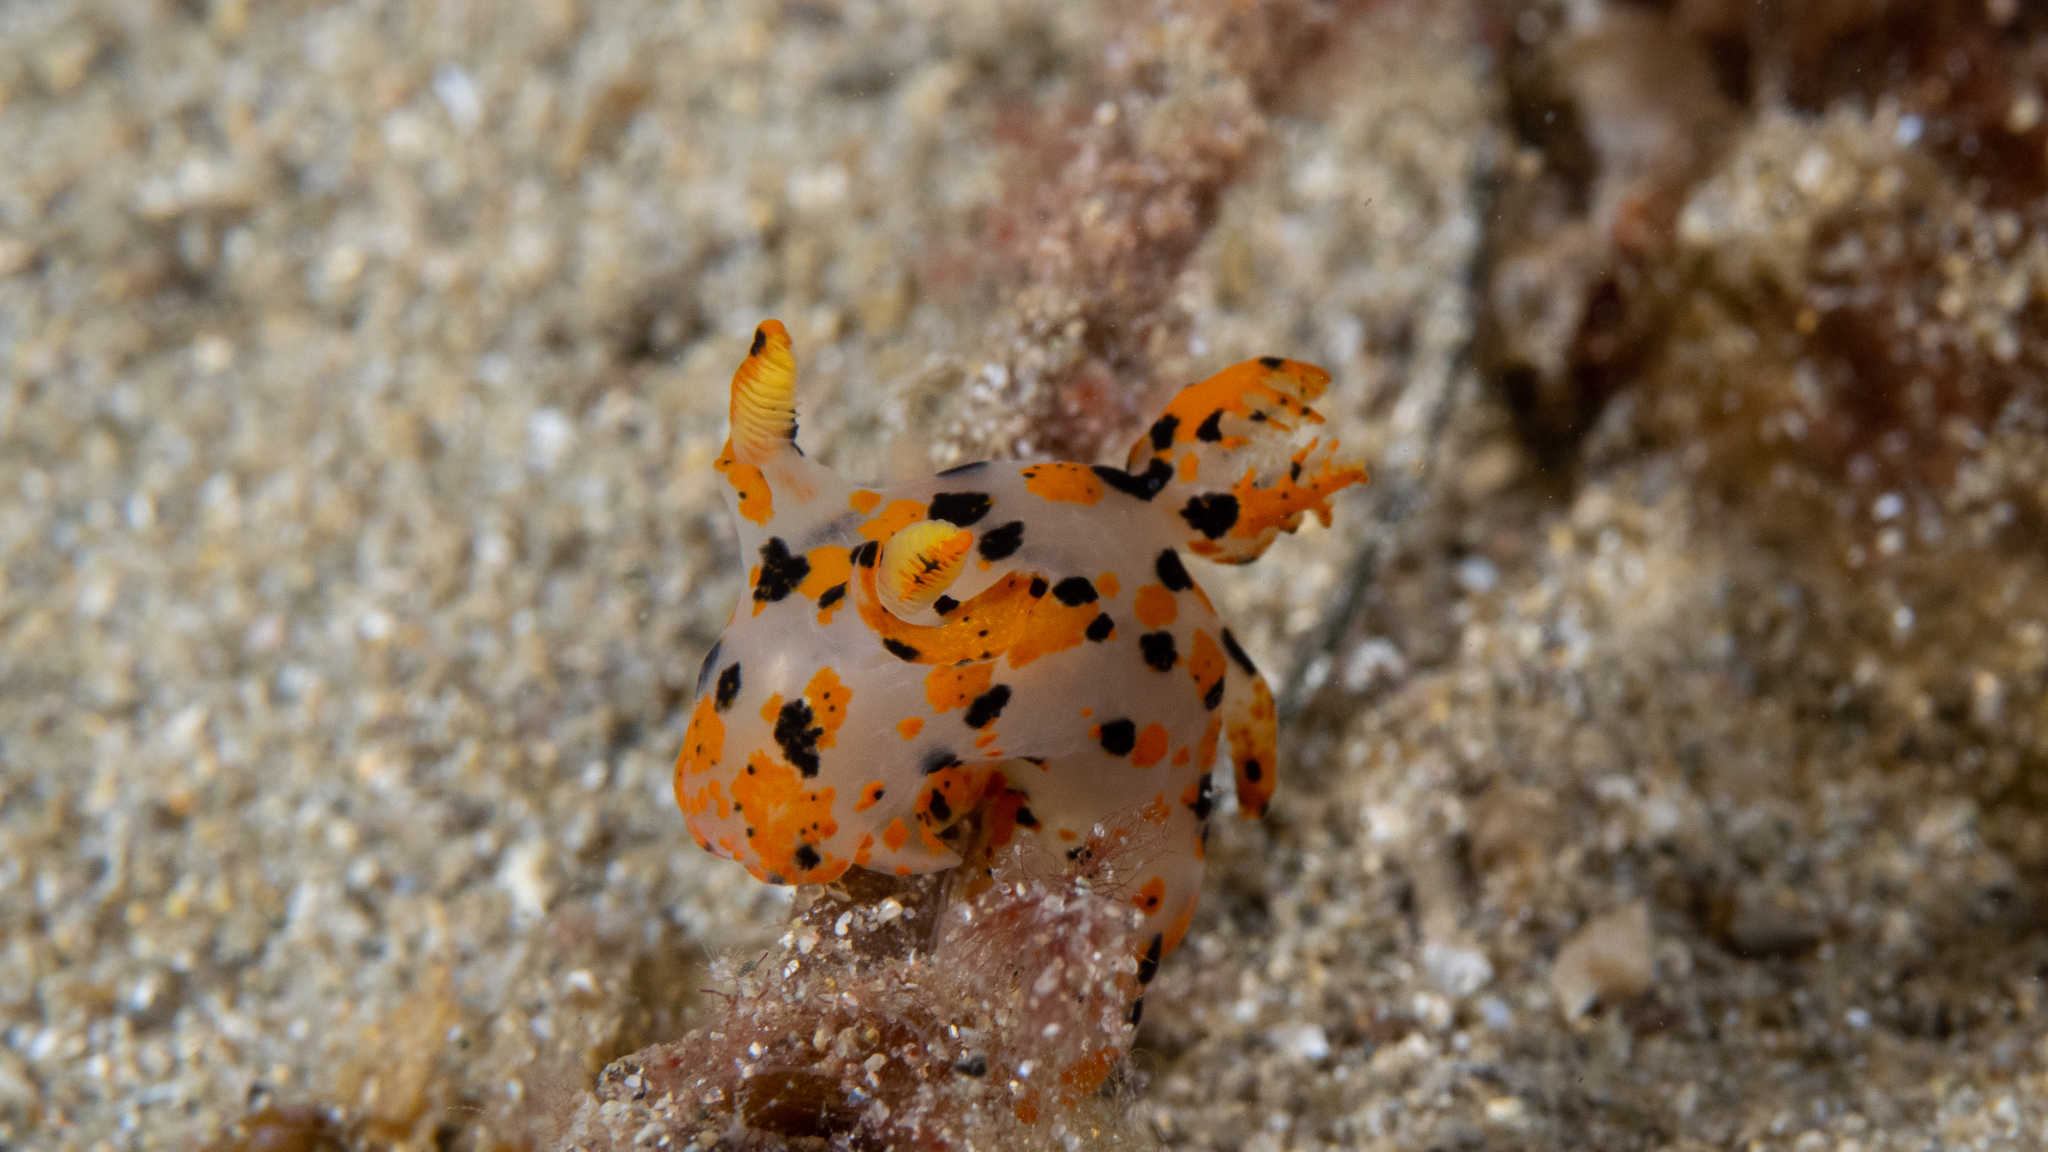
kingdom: Animalia
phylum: Mollusca
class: Gastropoda
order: Nudibranchia
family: Polyceridae
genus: Thecacera
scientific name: Thecacera pennigera
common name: Thecacera
